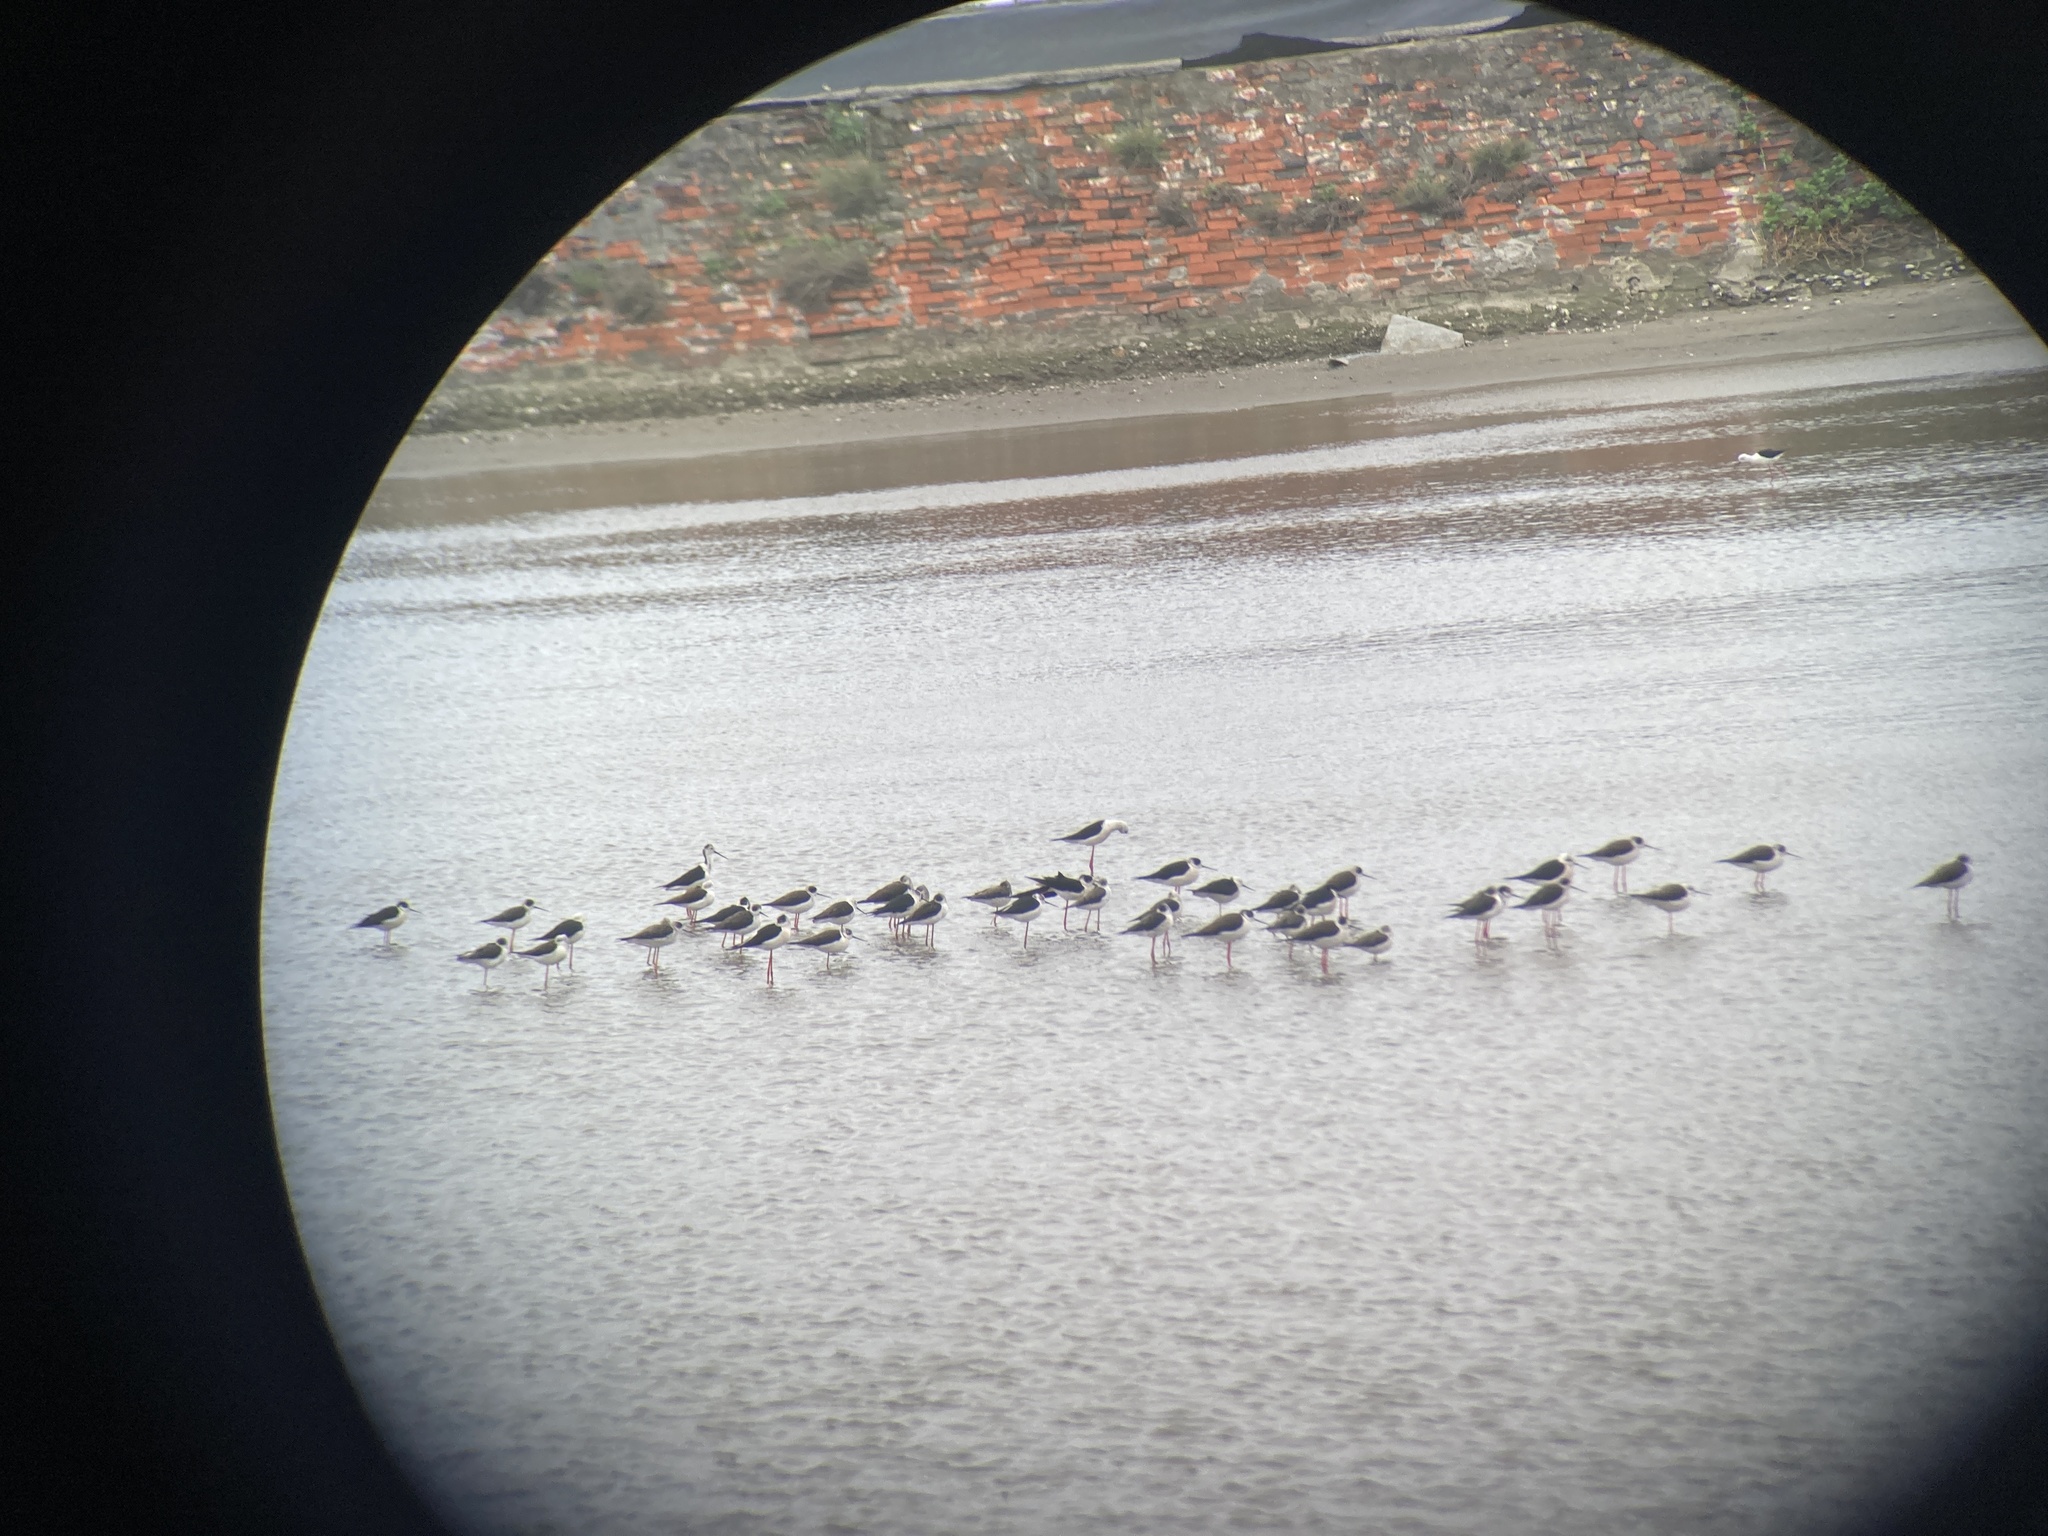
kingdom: Animalia
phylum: Chordata
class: Aves
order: Charadriiformes
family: Recurvirostridae
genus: Himantopus
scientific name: Himantopus himantopus
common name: Black-winged stilt
